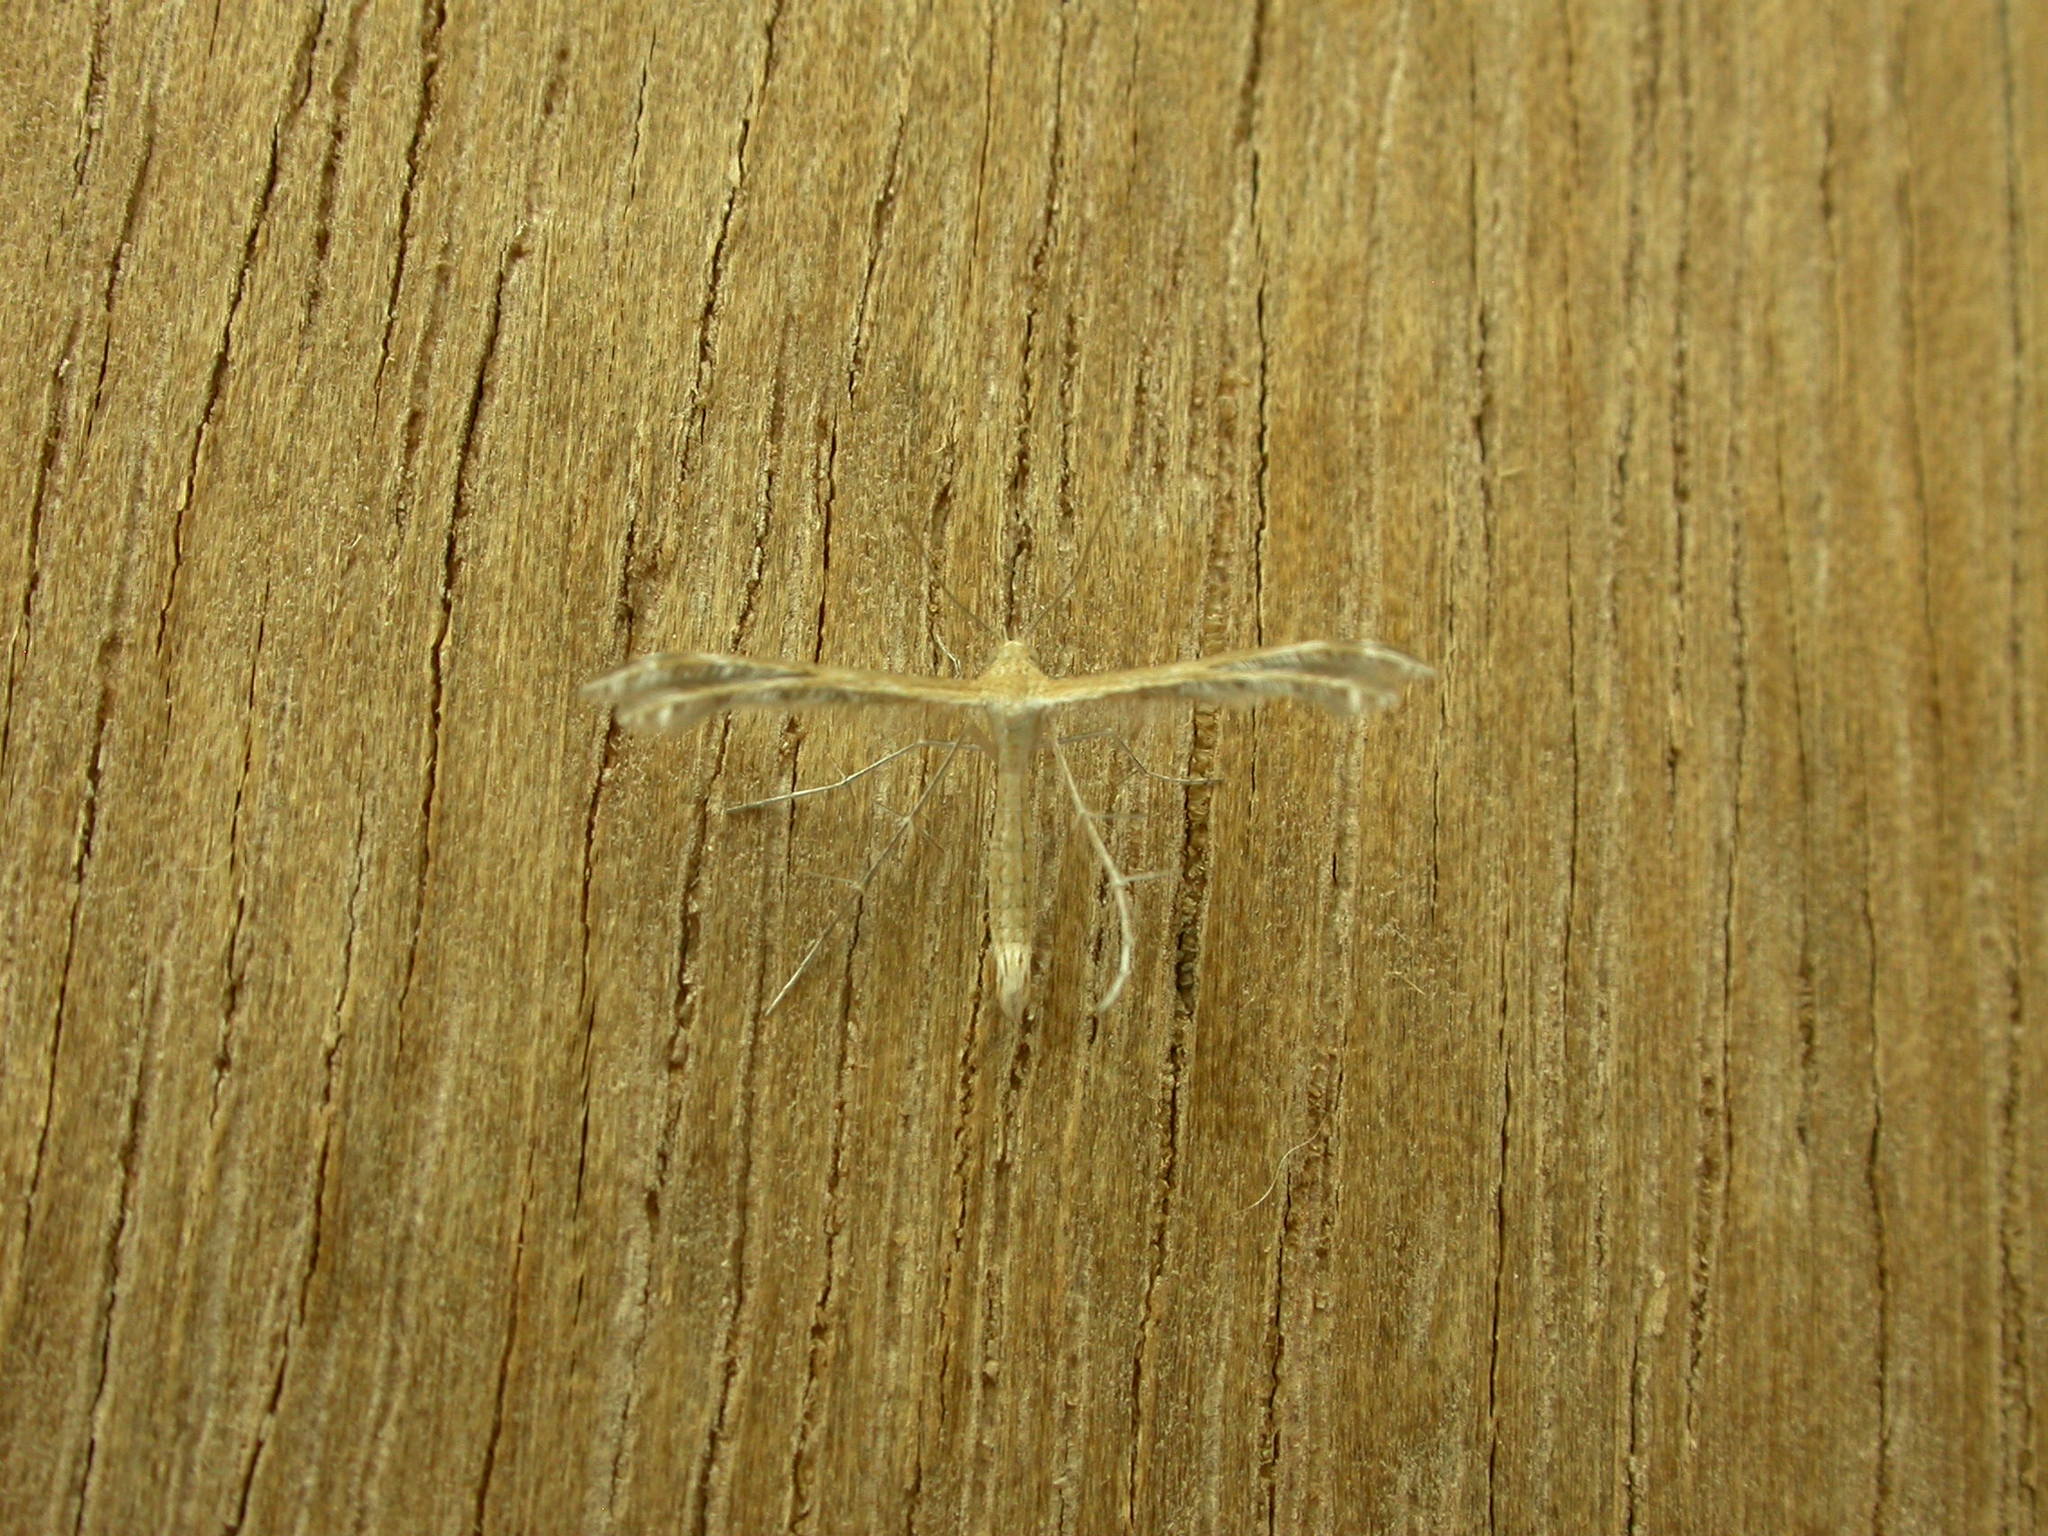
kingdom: Animalia
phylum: Arthropoda
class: Insecta
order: Lepidoptera
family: Pterophoridae
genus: Stangeia
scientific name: Stangeia xerodes
